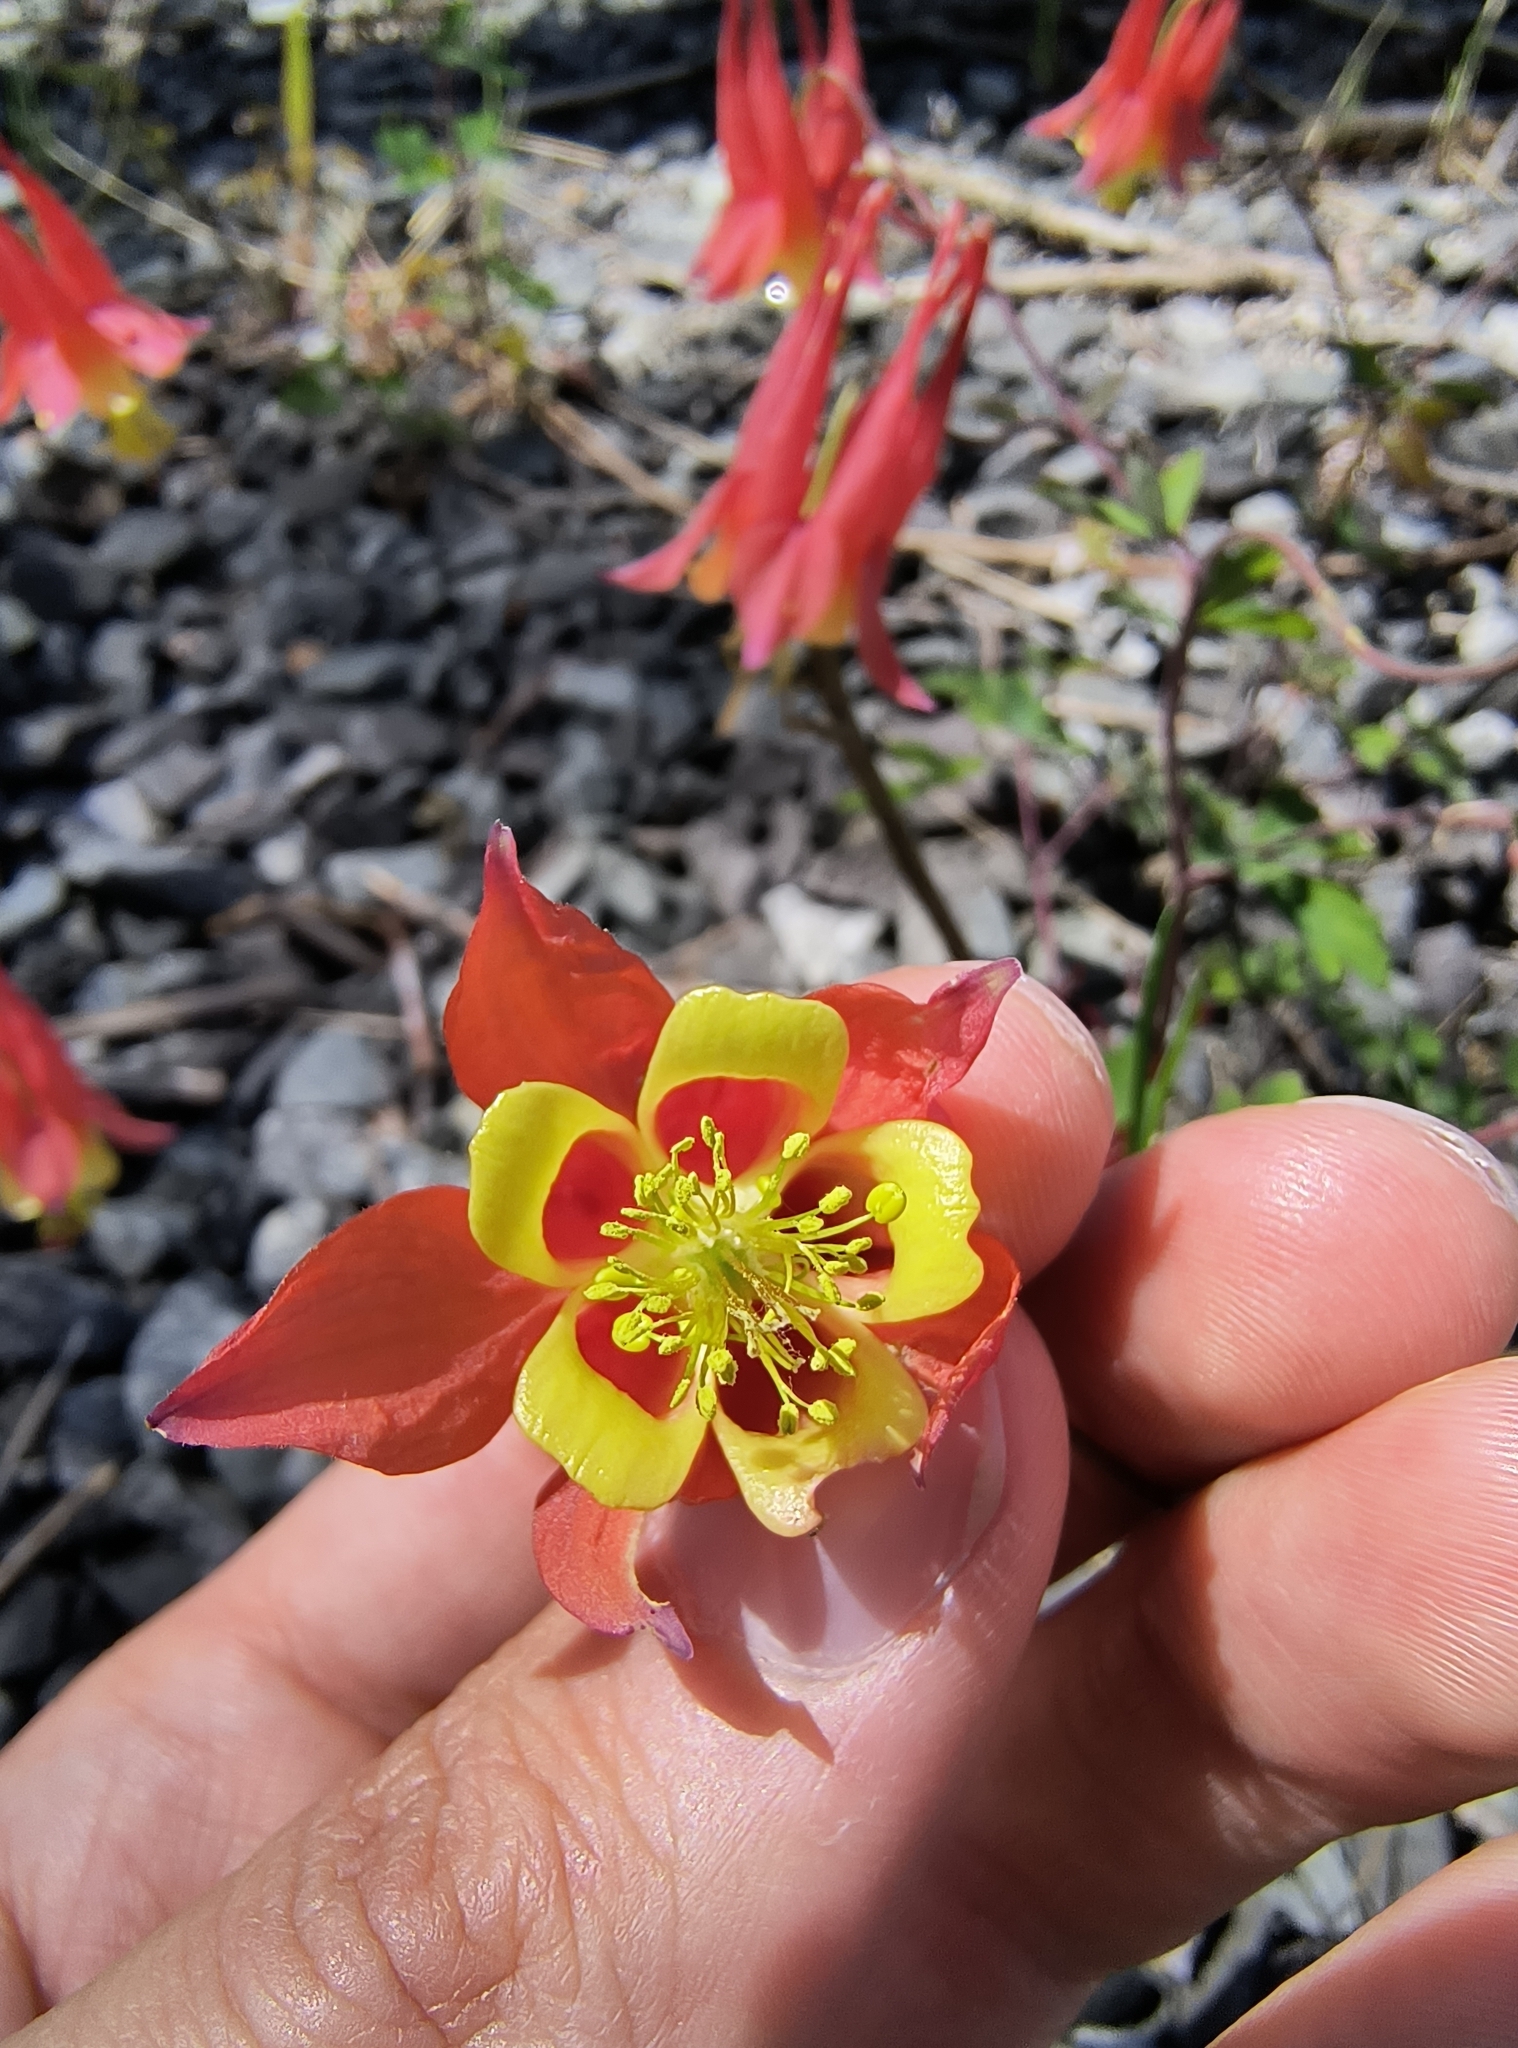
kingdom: Plantae
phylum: Tracheophyta
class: Magnoliopsida
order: Ranunculales
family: Ranunculaceae
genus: Aquilegia
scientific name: Aquilegia canadensis
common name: American columbine
